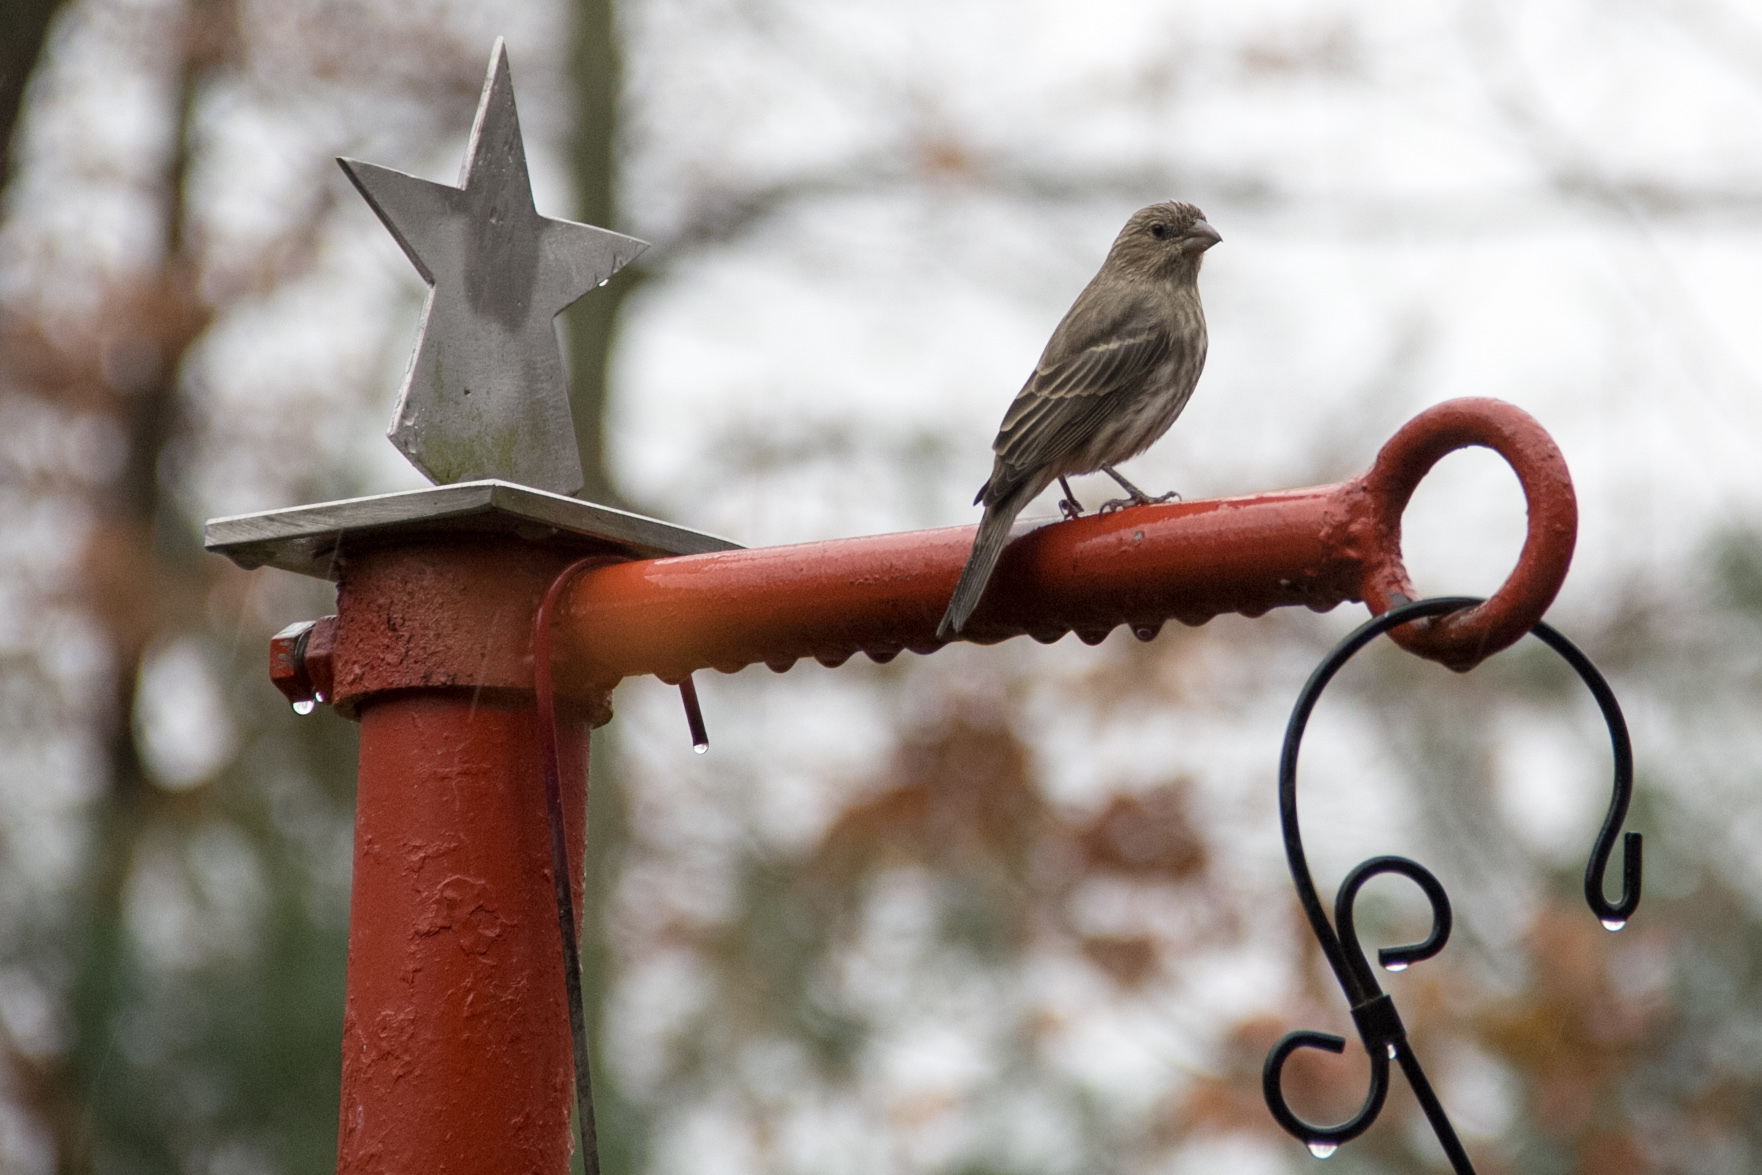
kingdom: Animalia
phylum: Chordata
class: Aves
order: Passeriformes
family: Fringillidae
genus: Haemorhous
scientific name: Haemorhous mexicanus
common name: House finch
